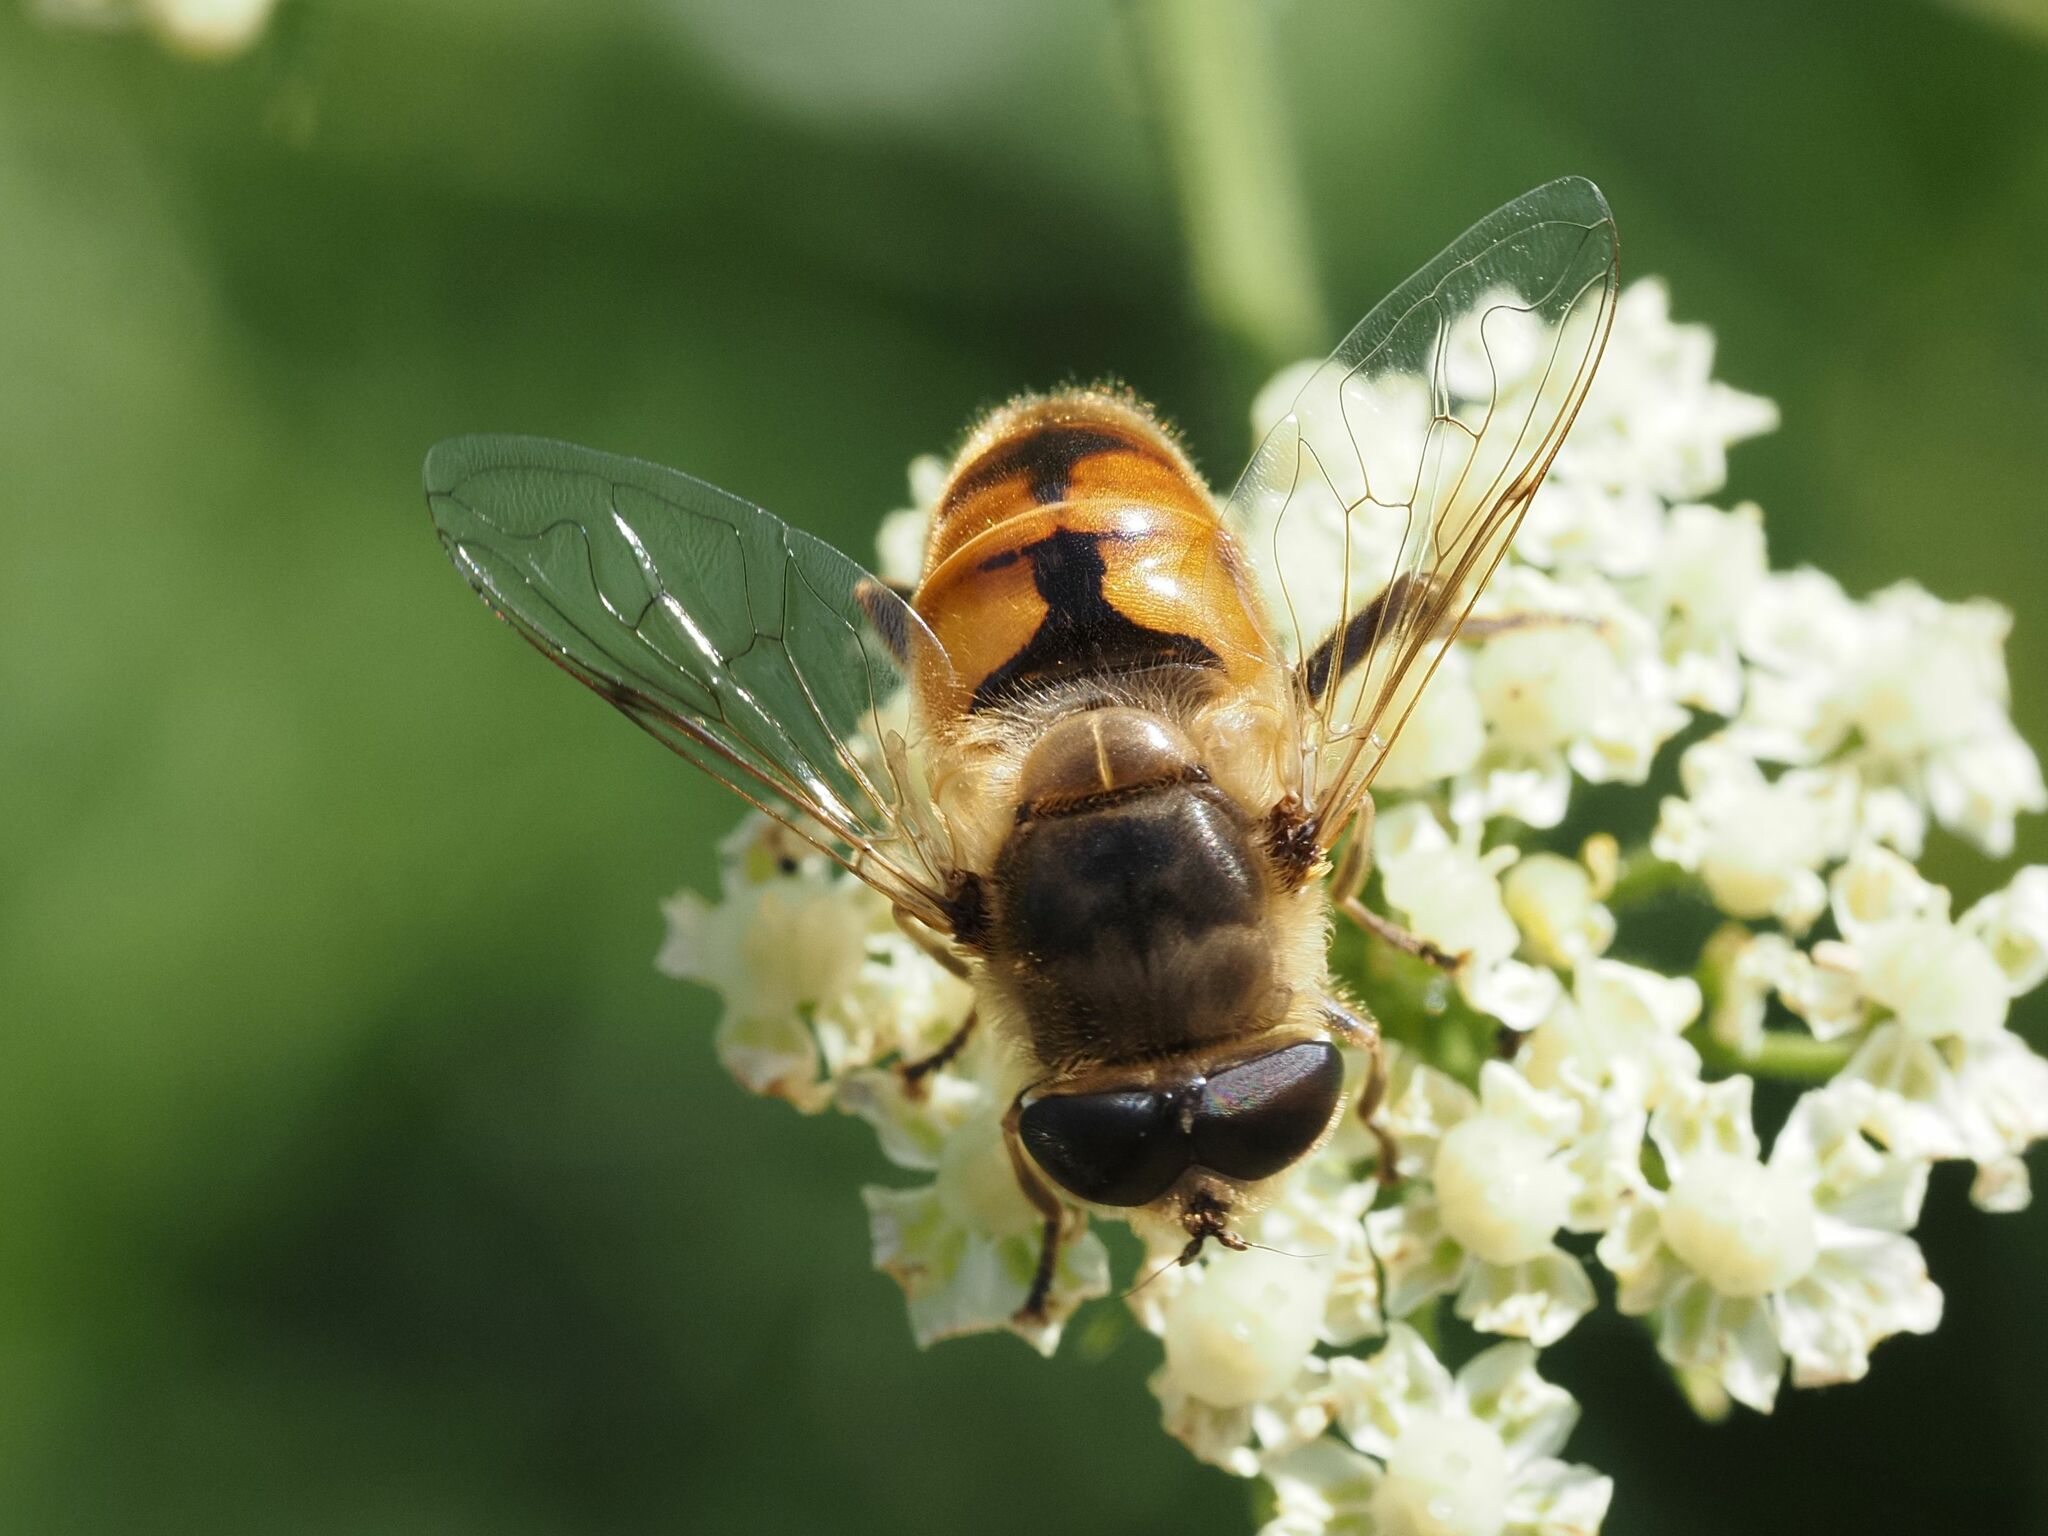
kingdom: Animalia
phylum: Arthropoda
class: Insecta
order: Diptera
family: Syrphidae
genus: Eristalis
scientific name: Eristalis tenax
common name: Drone fly
